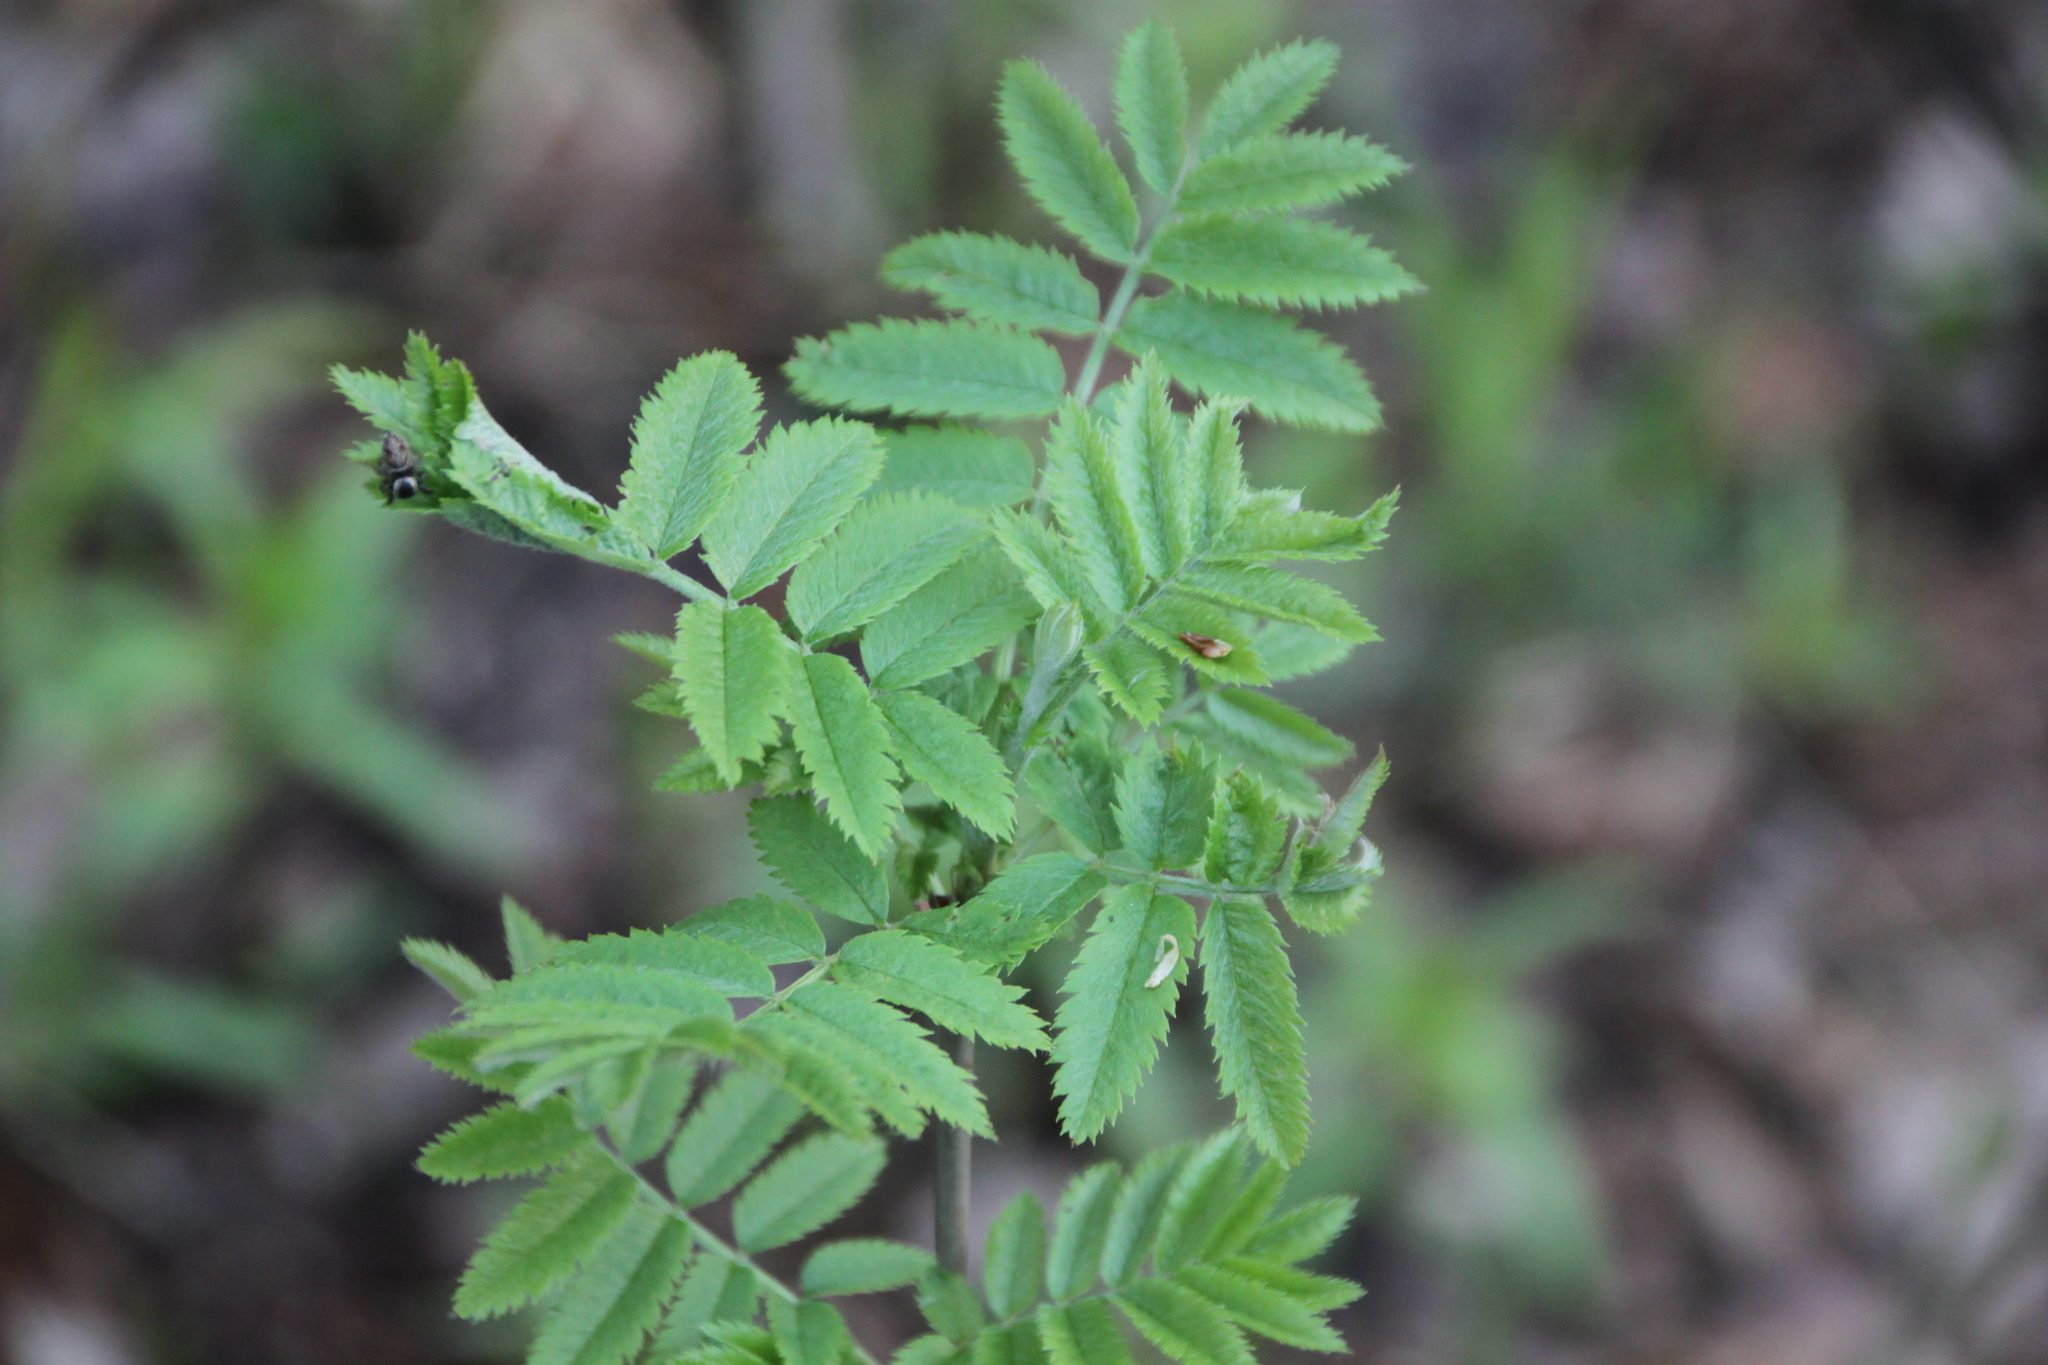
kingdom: Plantae
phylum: Tracheophyta
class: Magnoliopsida
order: Rosales
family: Rosaceae
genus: Sorbus
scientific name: Sorbus aucuparia
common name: Rowan
